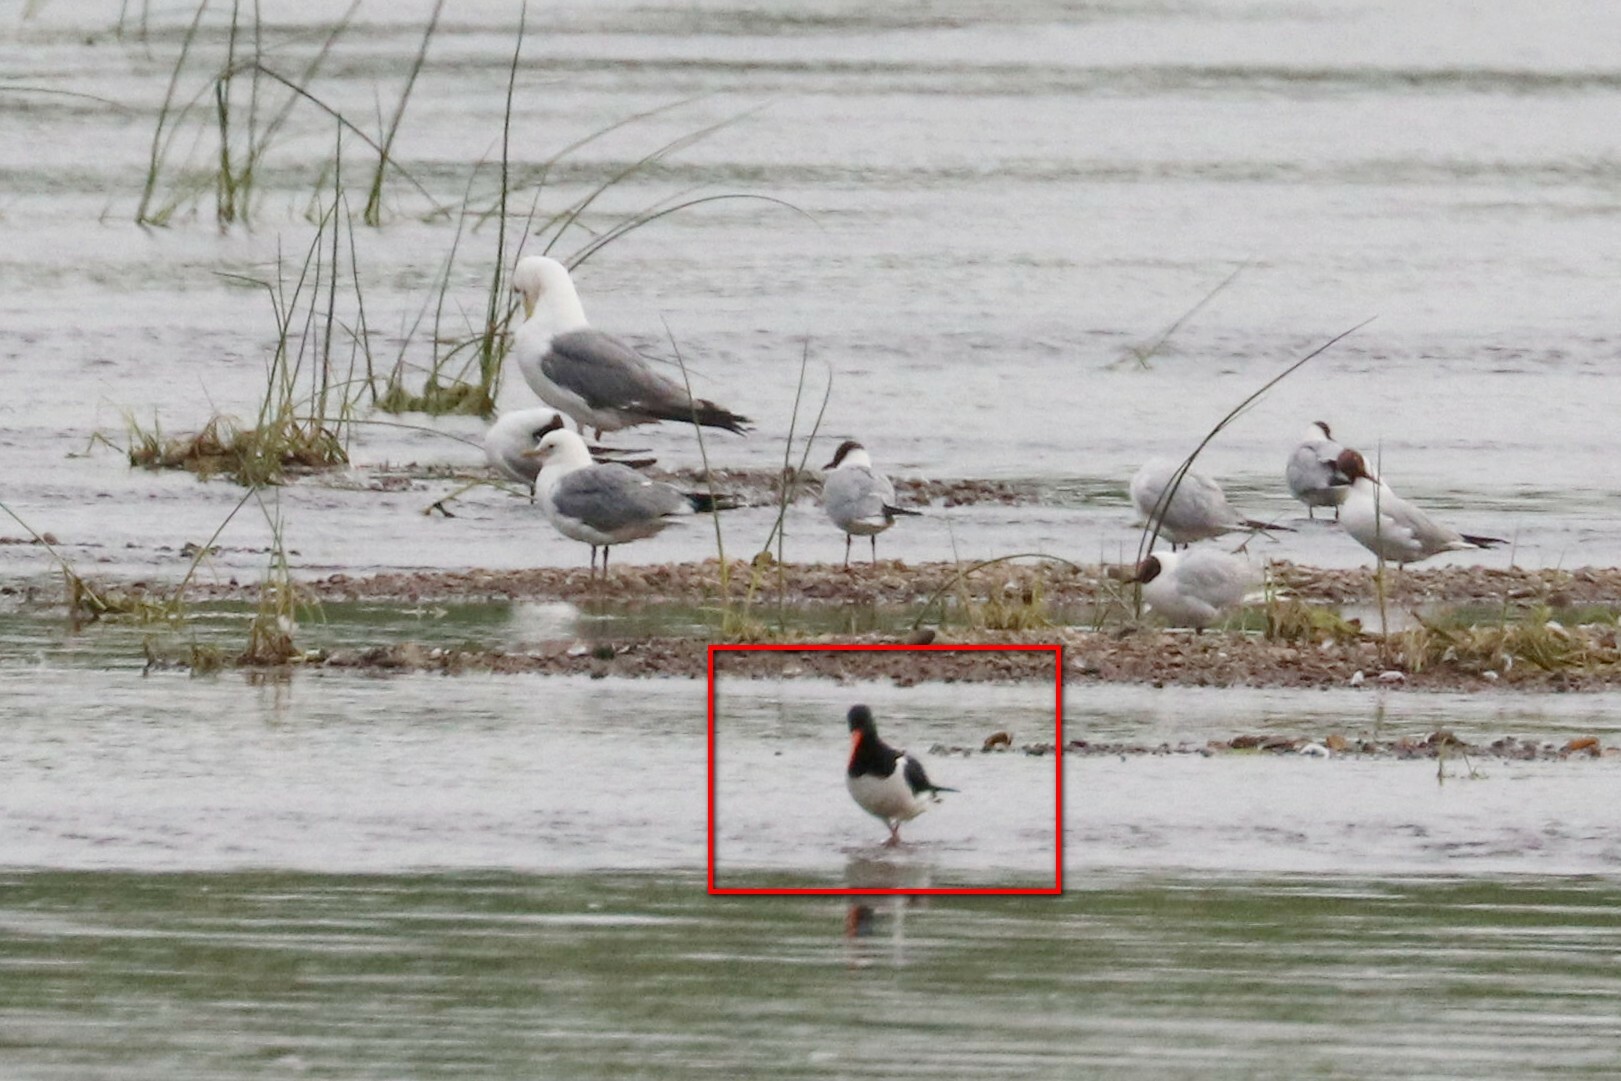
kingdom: Animalia
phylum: Chordata
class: Aves
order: Charadriiformes
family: Haematopodidae
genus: Haematopus
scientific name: Haematopus ostralegus
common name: Eurasian oystercatcher
